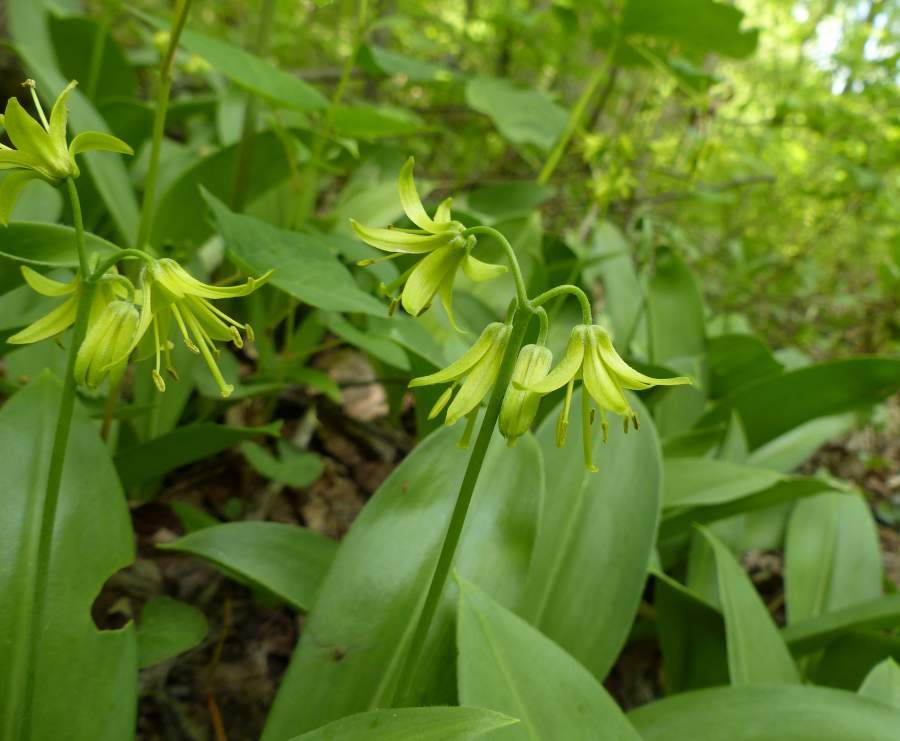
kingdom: Plantae
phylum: Tracheophyta
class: Liliopsida
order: Liliales
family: Liliaceae
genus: Clintonia
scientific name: Clintonia borealis
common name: Yellow clintonia
